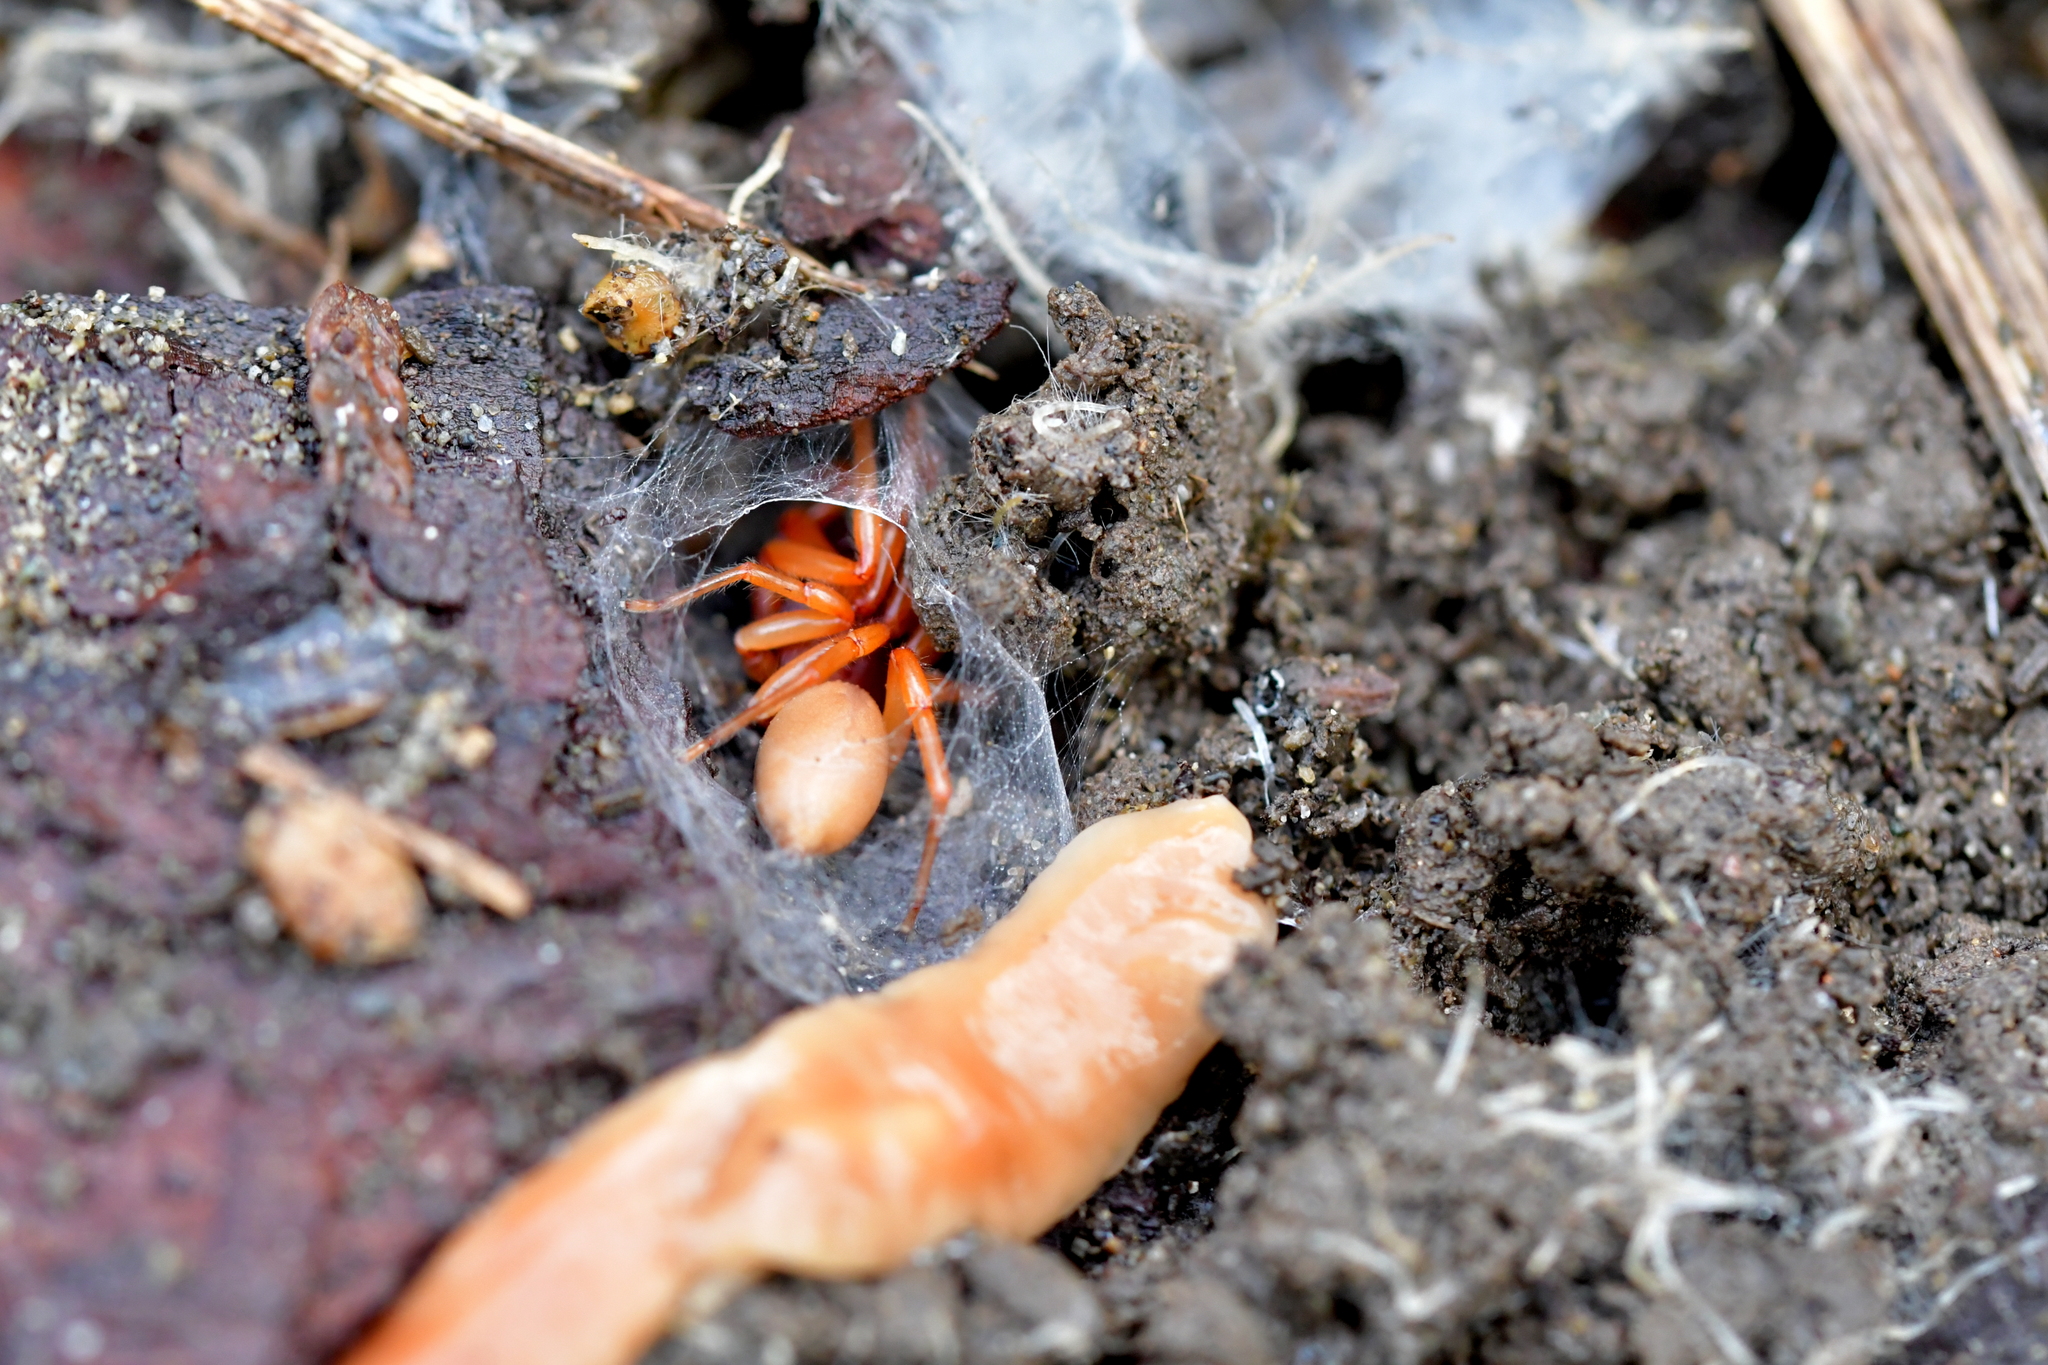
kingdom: Animalia
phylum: Arthropoda
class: Arachnida
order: Araneae
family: Dysderidae
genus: Dysdera
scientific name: Dysdera crocata
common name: Woodlouse spider
